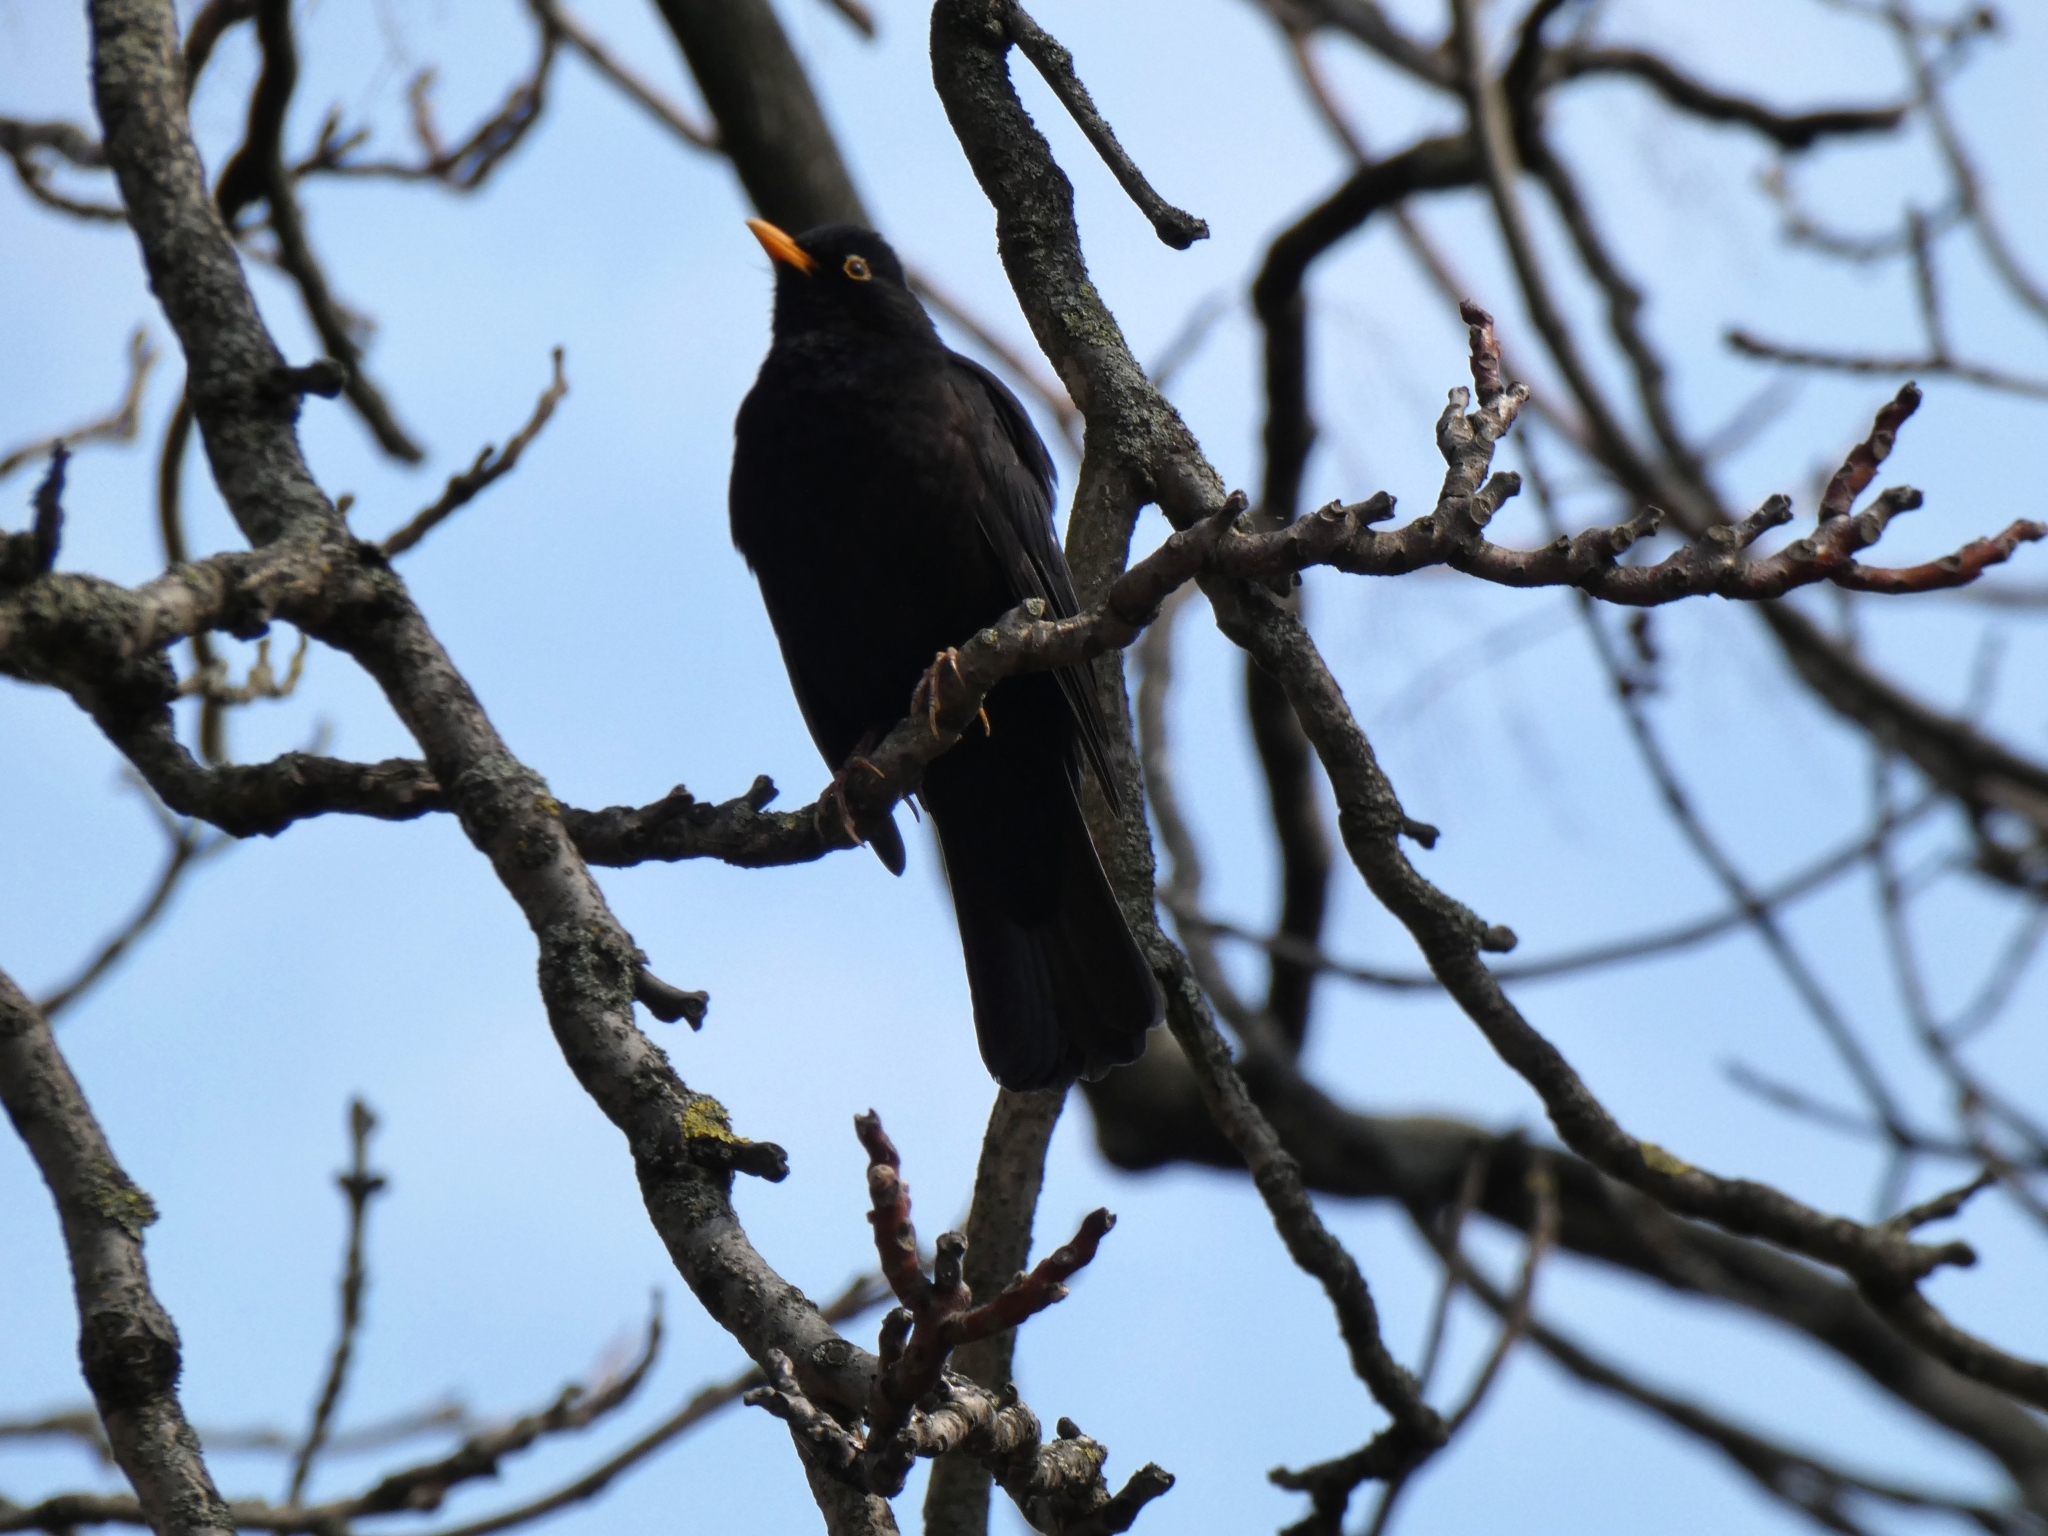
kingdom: Animalia
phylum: Chordata
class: Aves
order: Passeriformes
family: Turdidae
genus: Turdus
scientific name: Turdus merula
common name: Common blackbird
